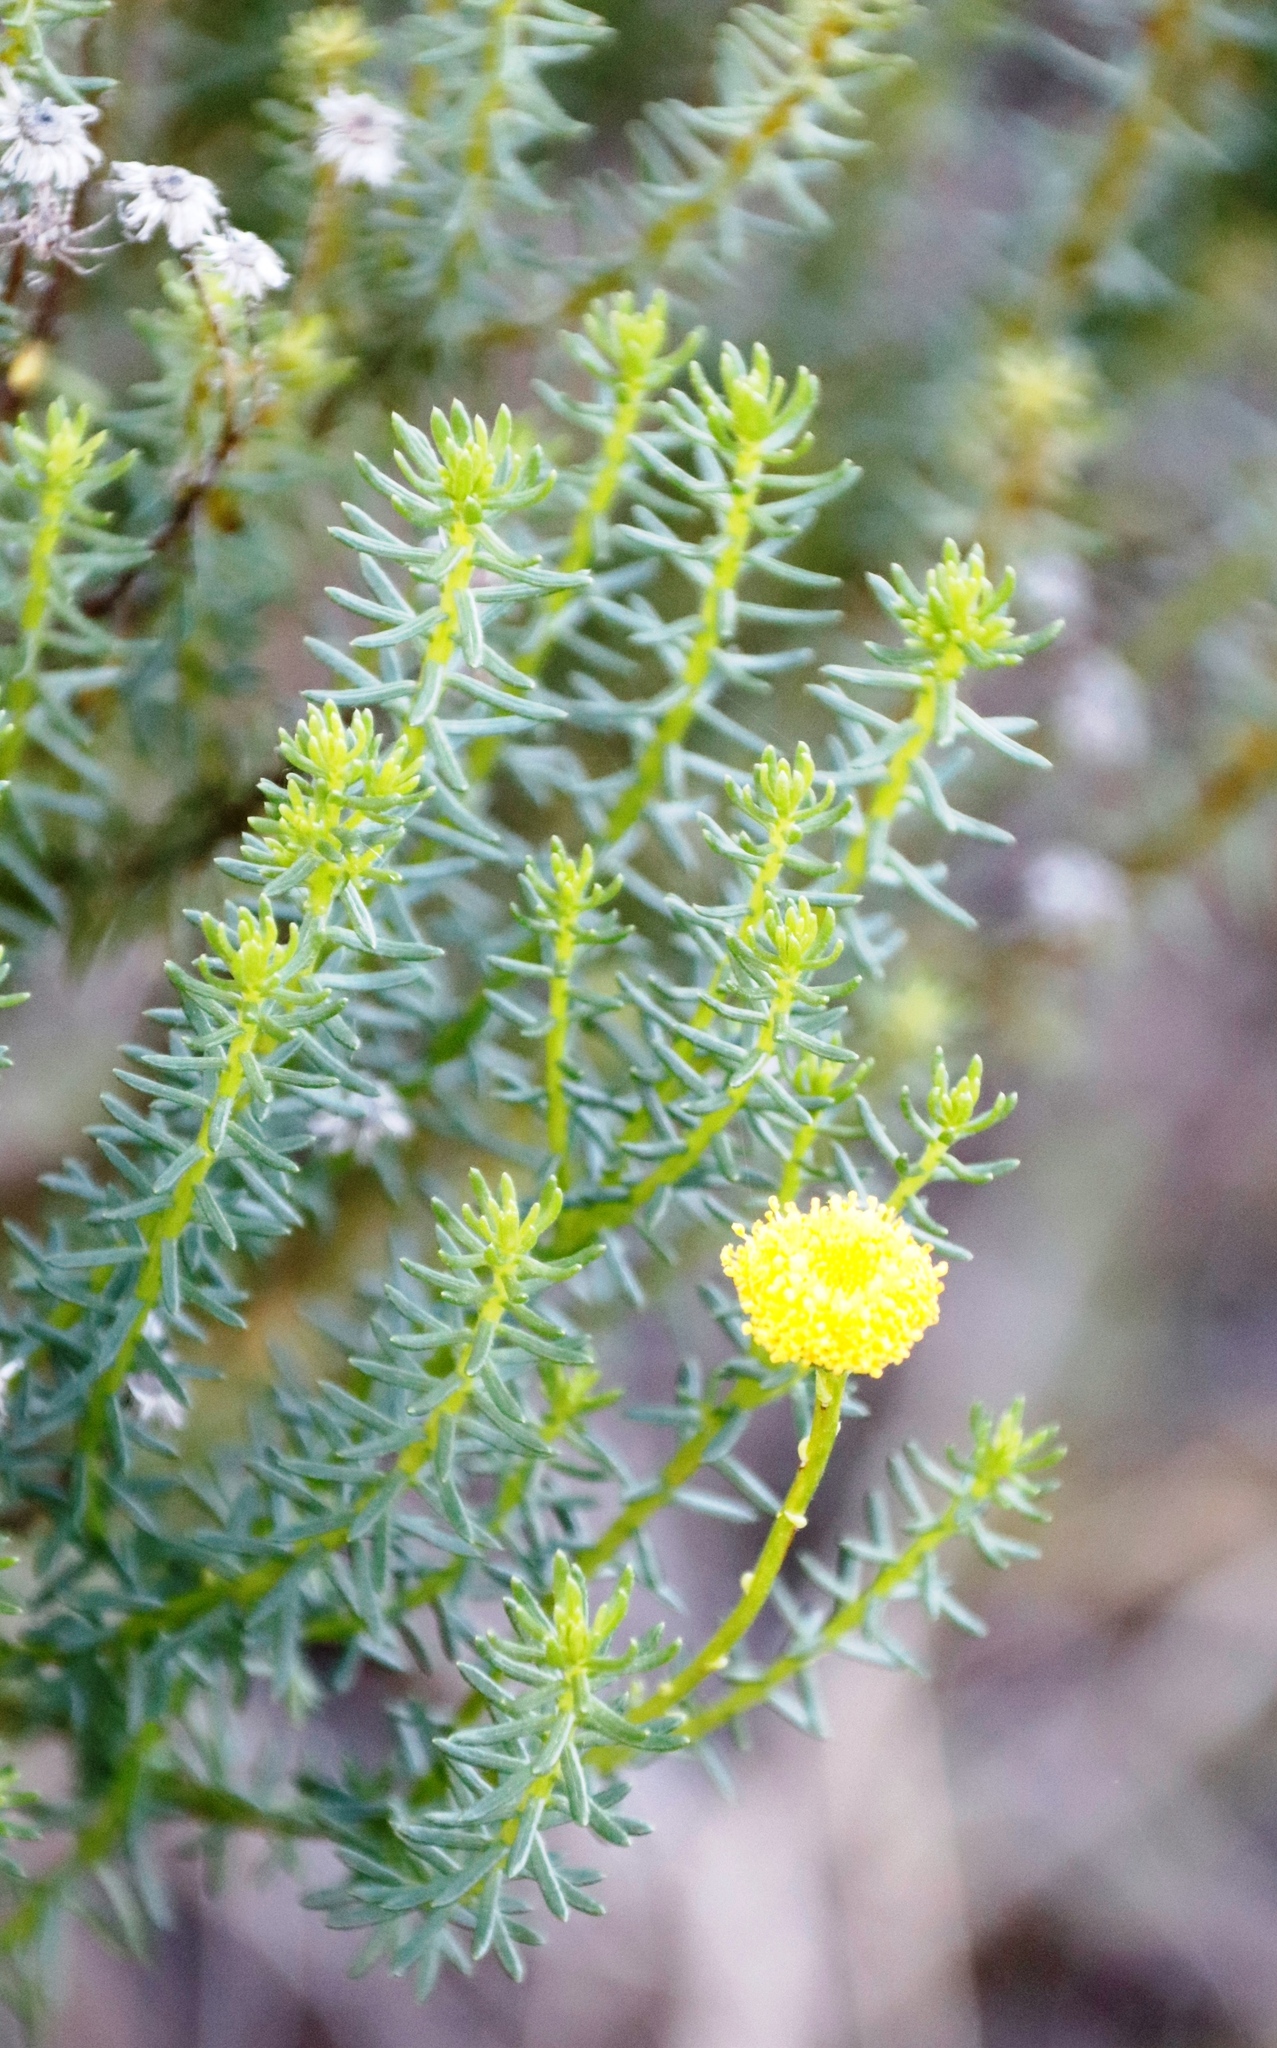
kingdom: Plantae
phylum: Tracheophyta
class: Magnoliopsida
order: Asterales
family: Asteraceae
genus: Chrysocoma
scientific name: Chrysocoma cernua
